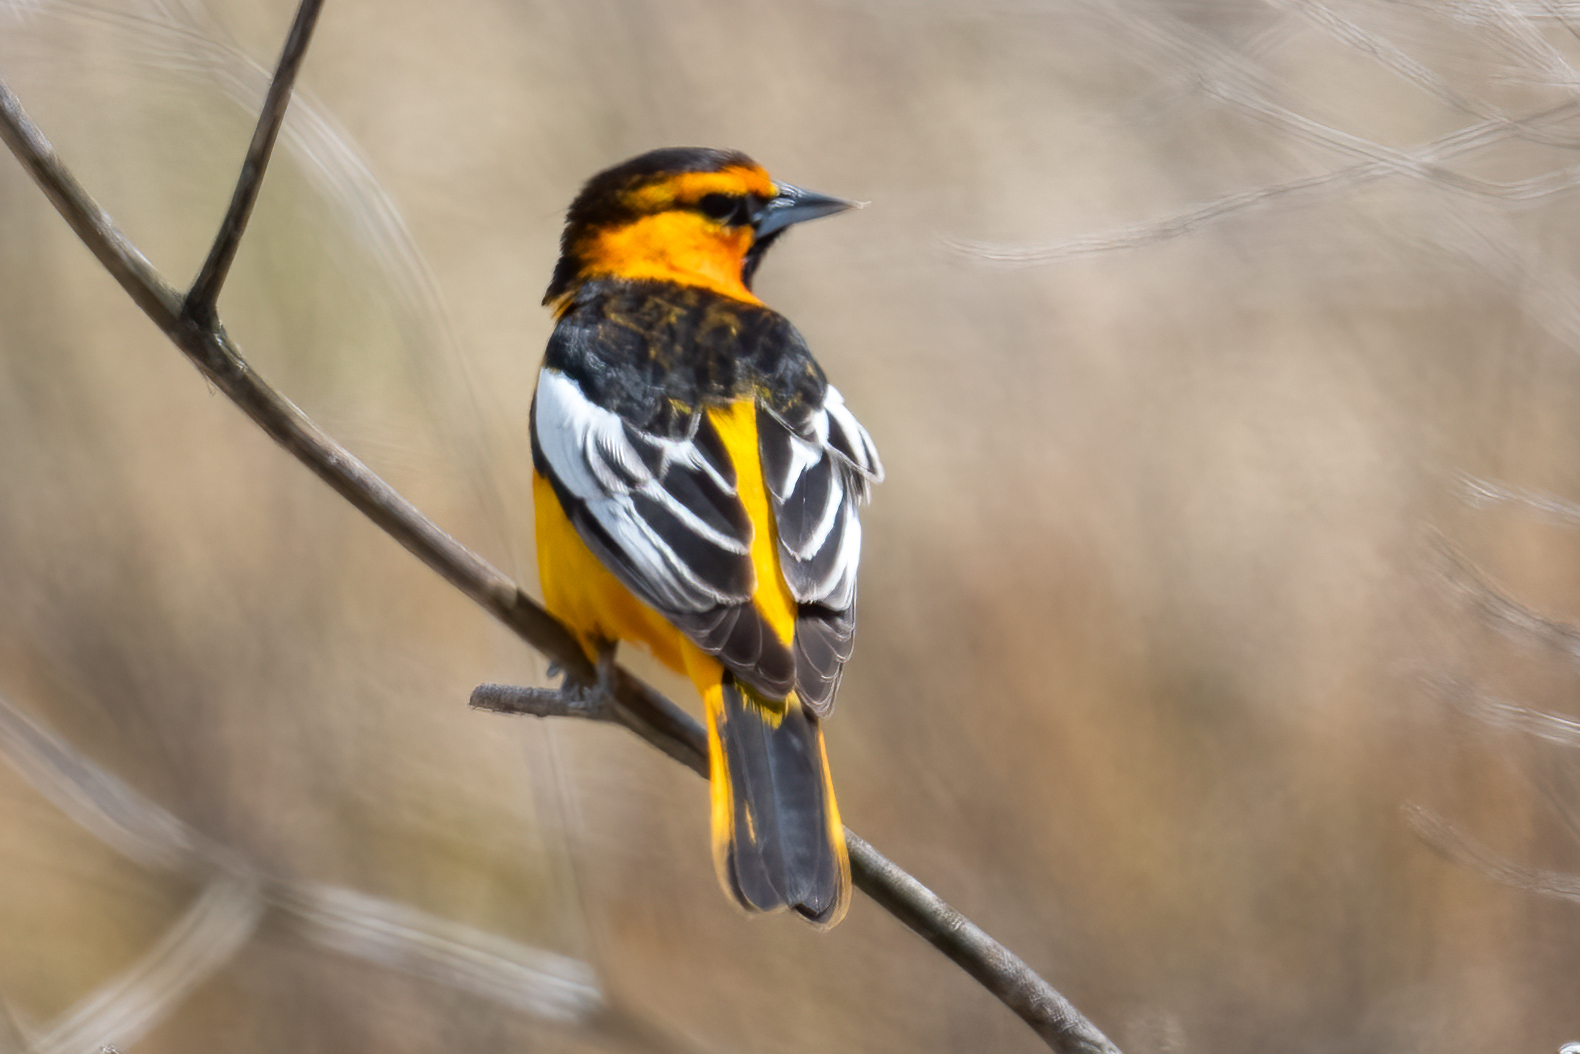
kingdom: Animalia
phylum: Chordata
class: Aves
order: Passeriformes
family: Icteridae
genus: Icterus
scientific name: Icterus bullockii
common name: Bullock's oriole
